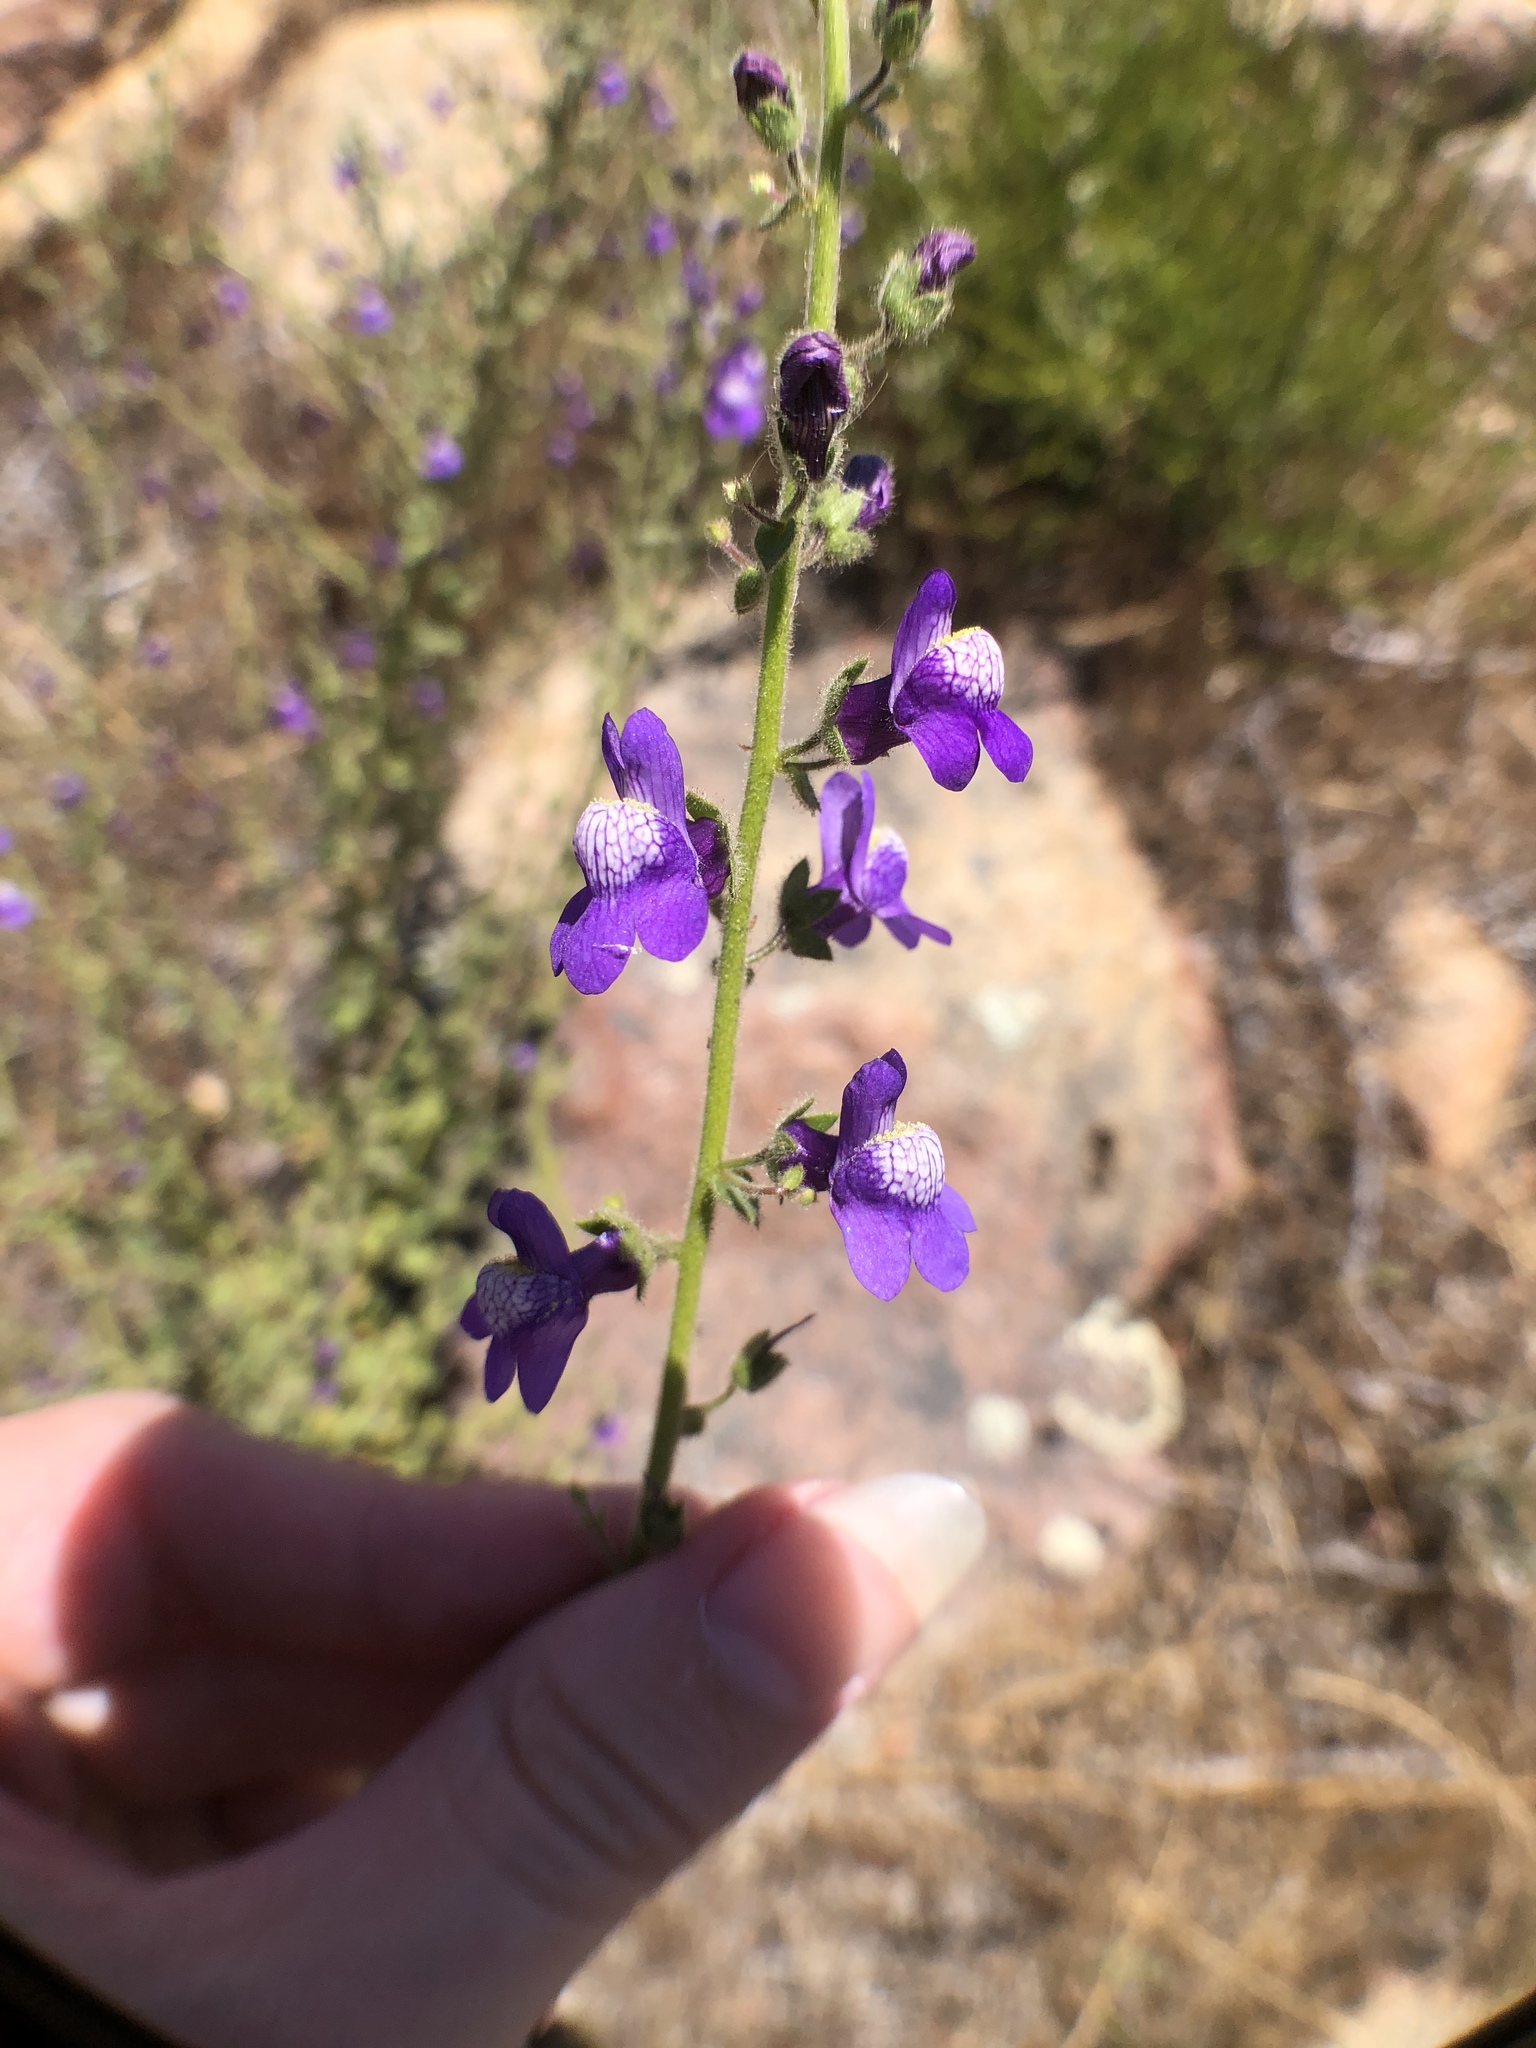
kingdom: Plantae
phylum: Tracheophyta
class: Magnoliopsida
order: Lamiales
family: Plantaginaceae
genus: Sairocarpus
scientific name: Sairocarpus nuttallianus
